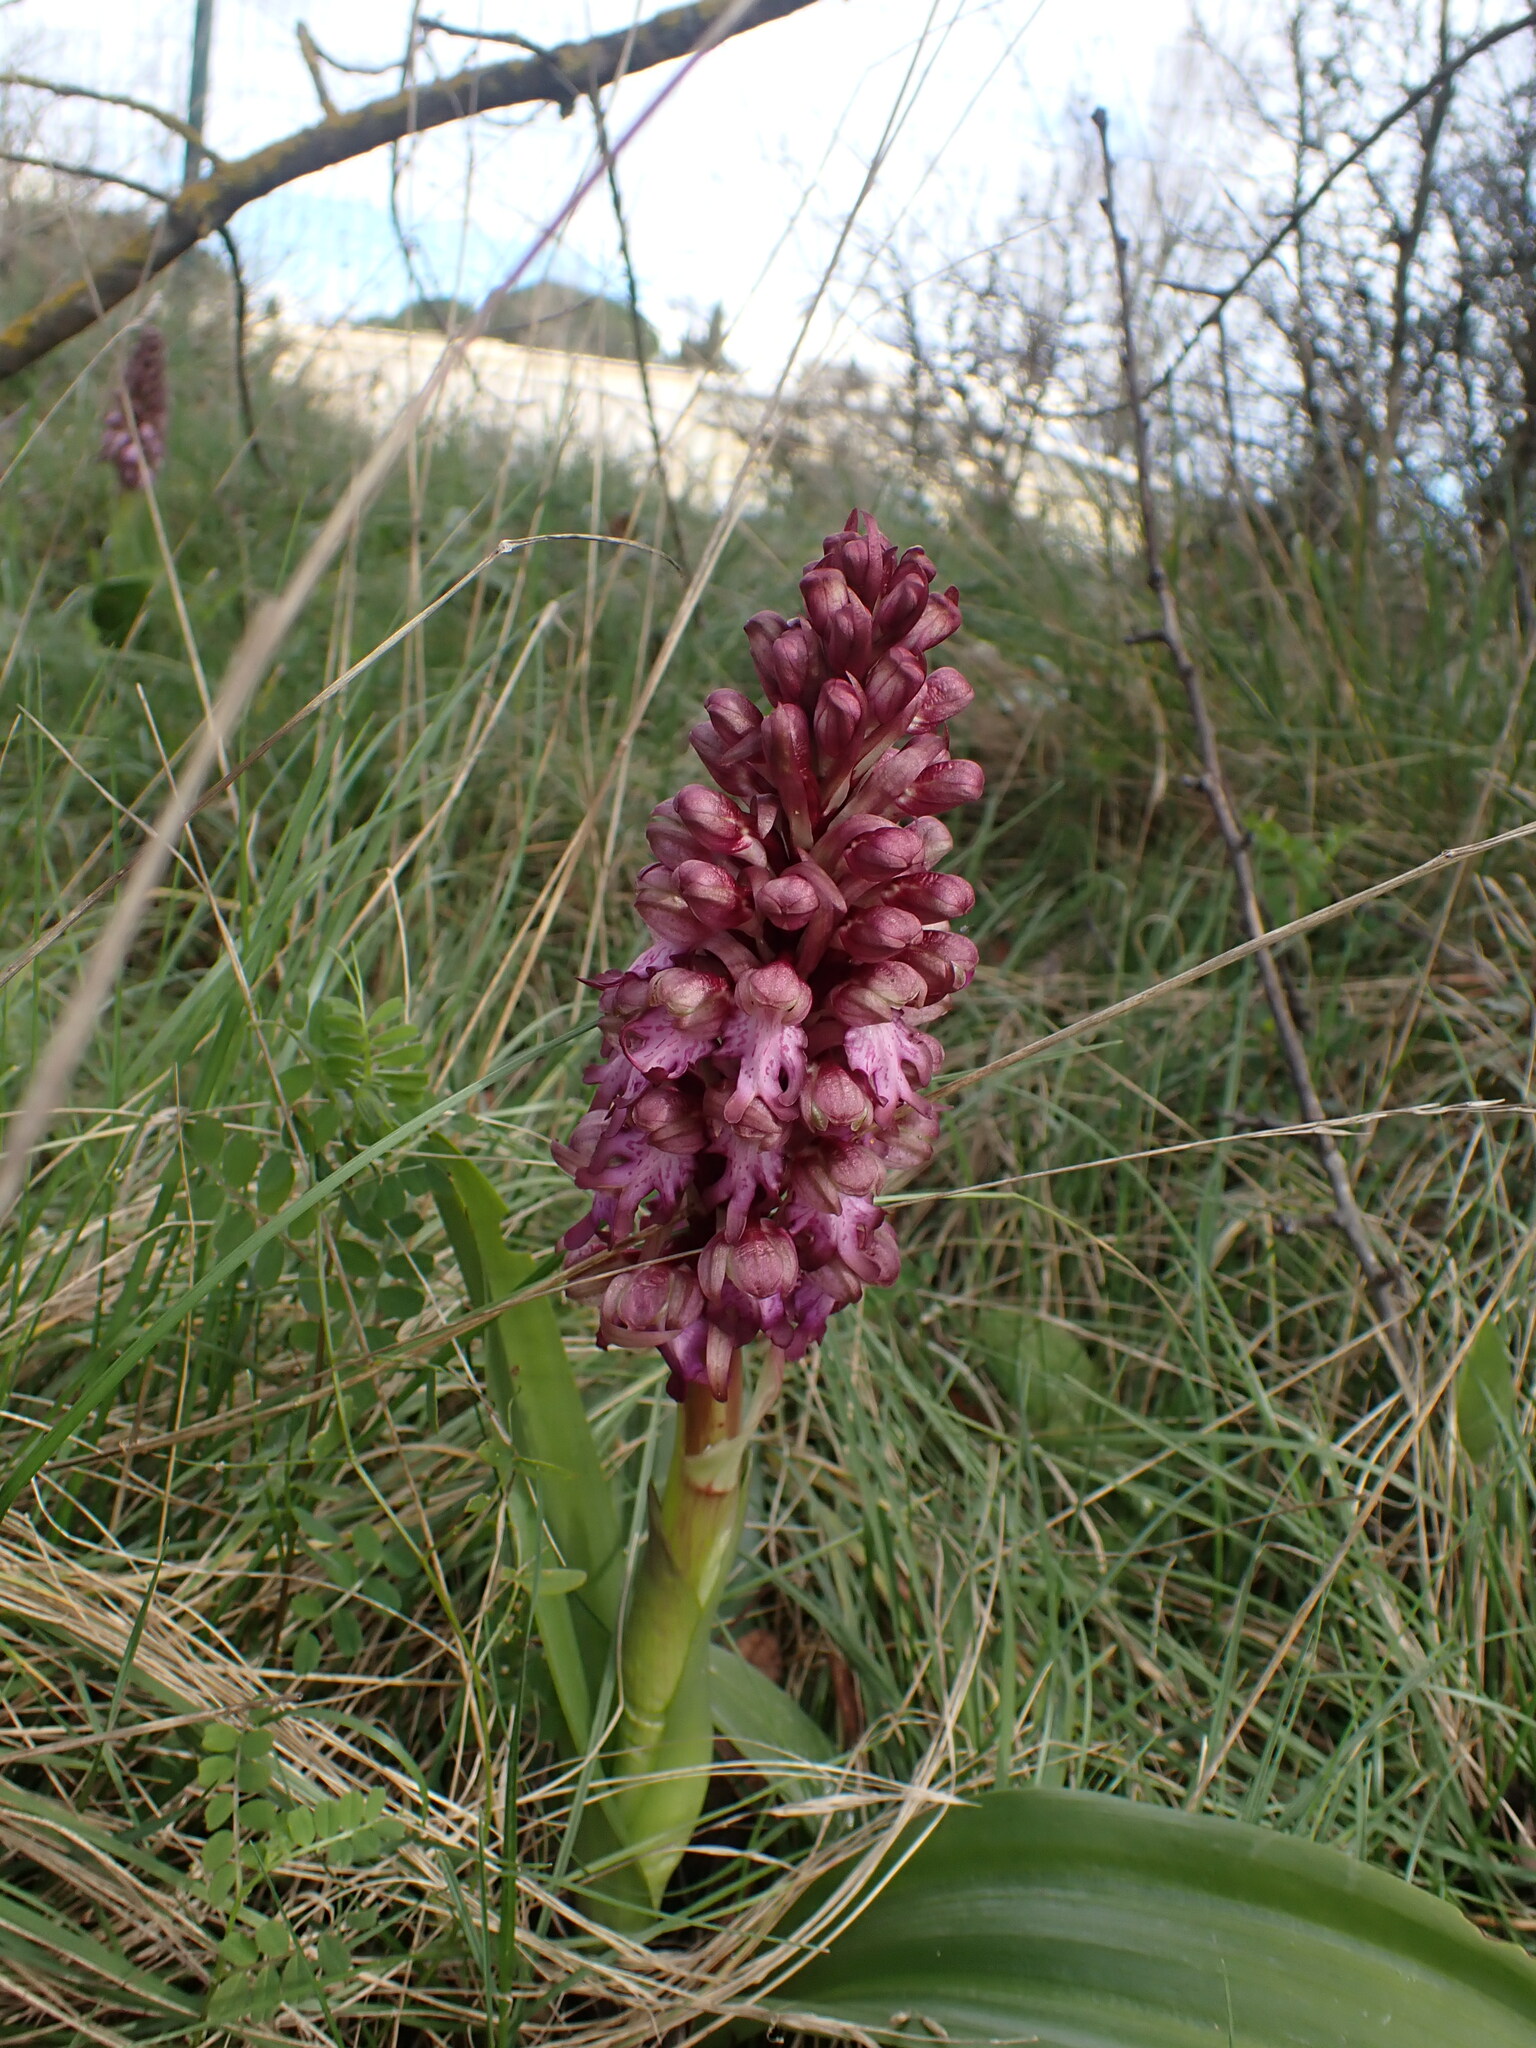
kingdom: Plantae
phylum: Tracheophyta
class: Liliopsida
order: Asparagales
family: Orchidaceae
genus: Himantoglossum
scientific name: Himantoglossum robertianum
